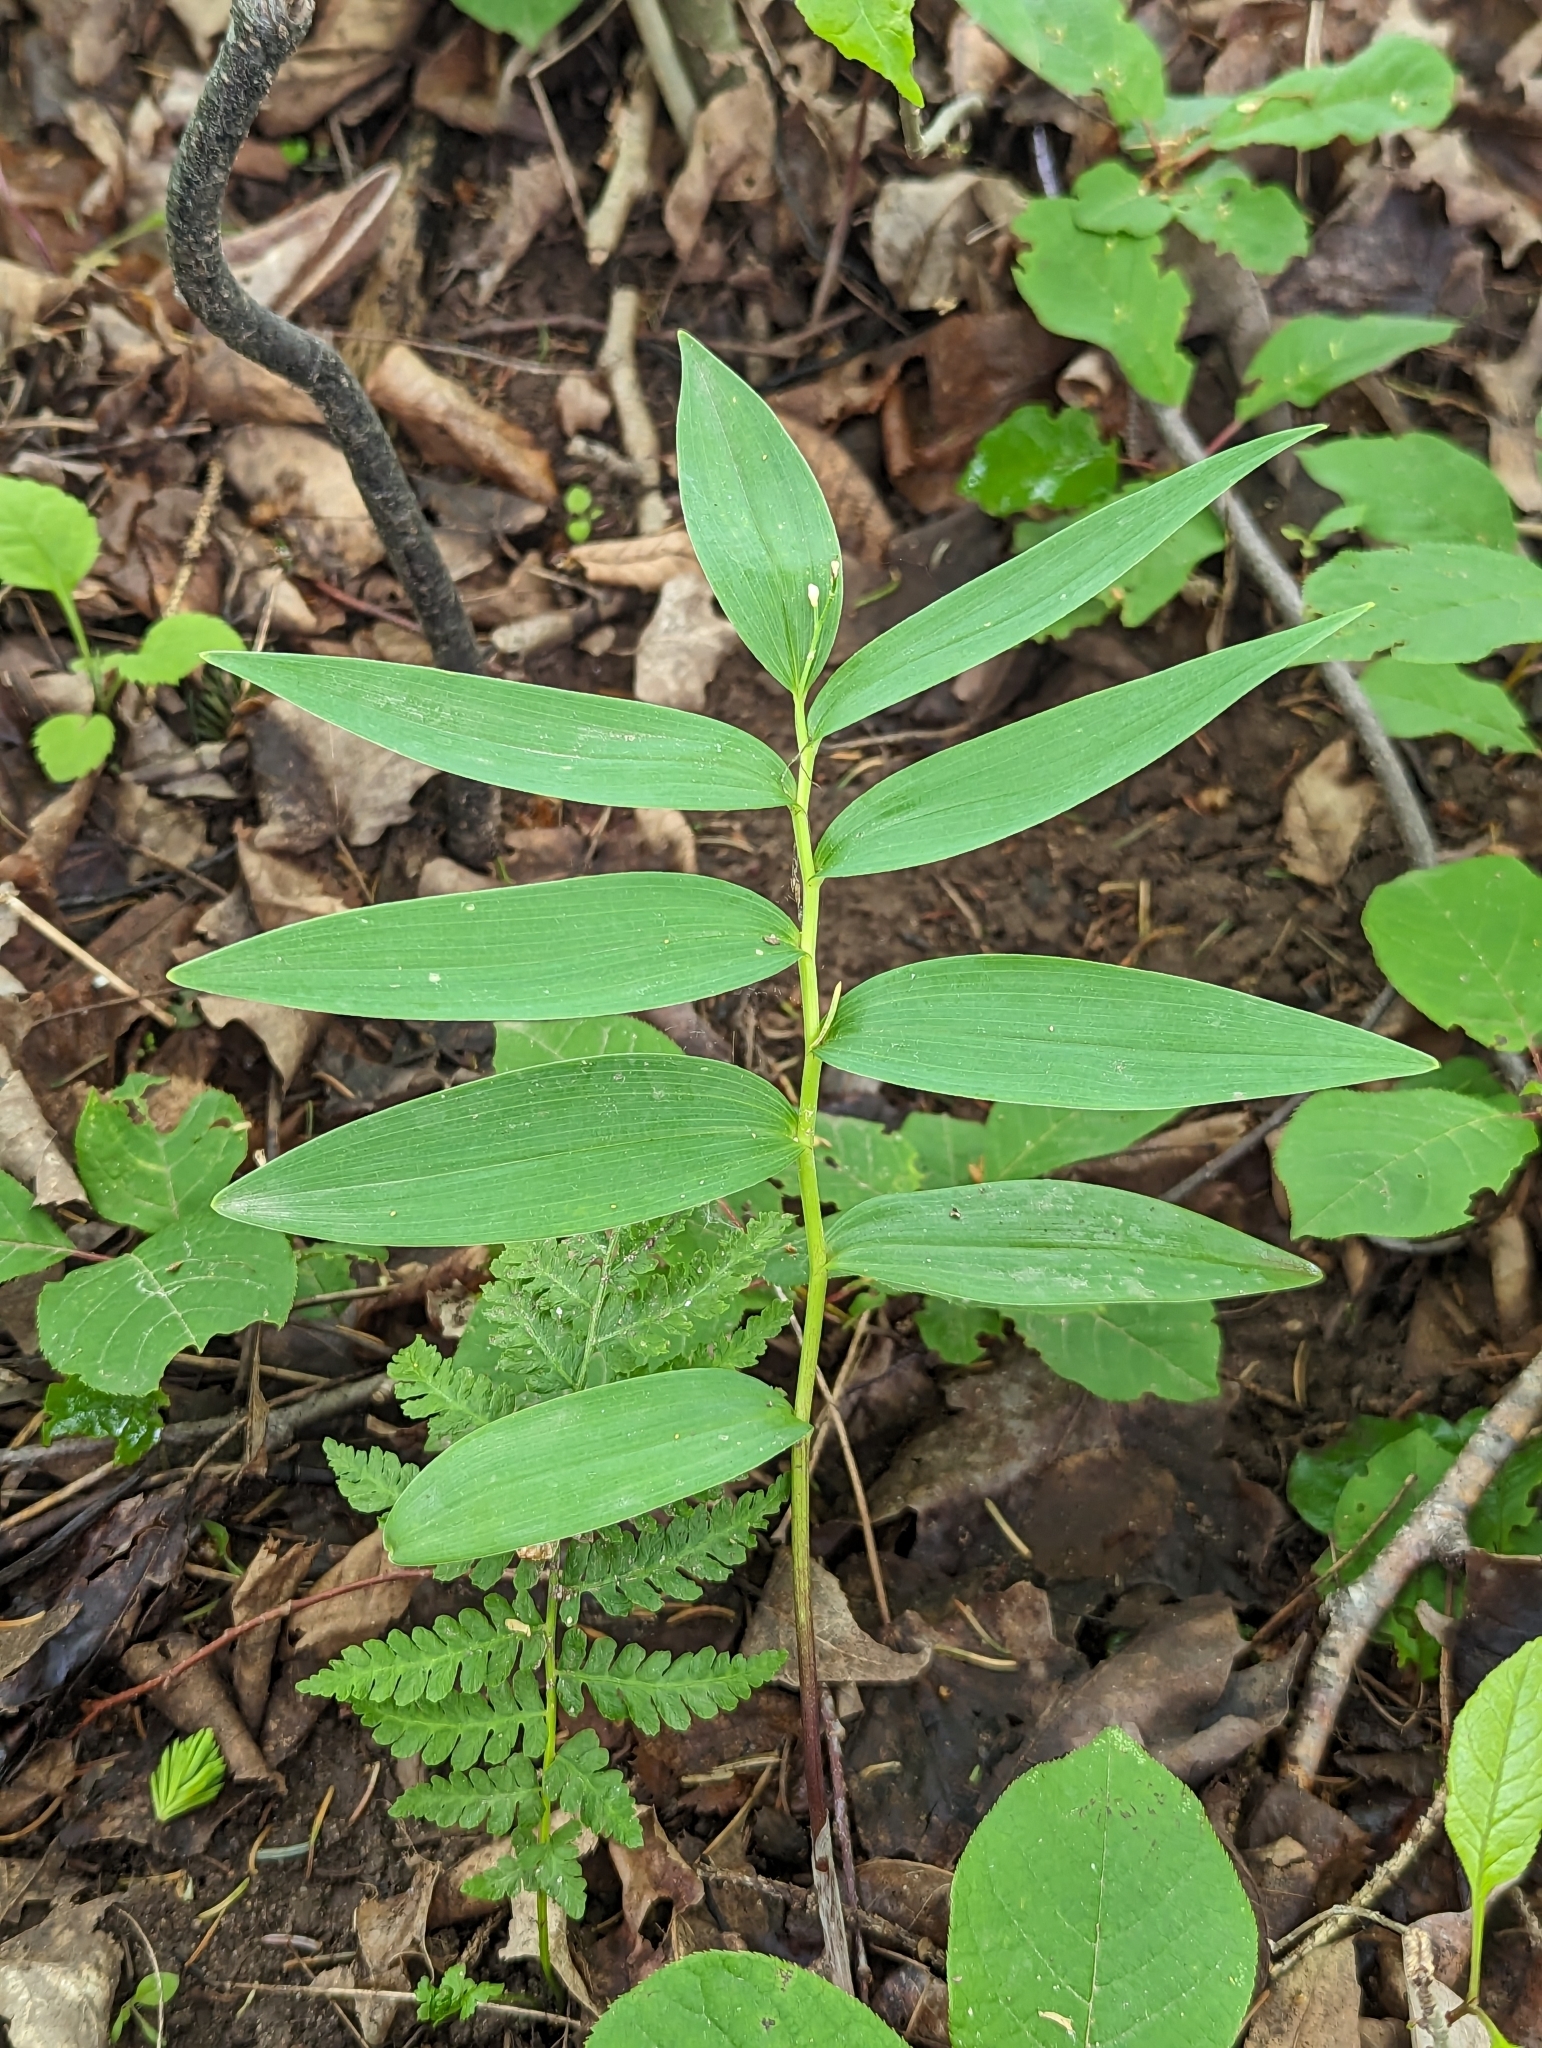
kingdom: Plantae
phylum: Tracheophyta
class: Liliopsida
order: Asparagales
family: Asparagaceae
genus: Maianthemum
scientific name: Maianthemum stellatum
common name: Little false solomon's seal
